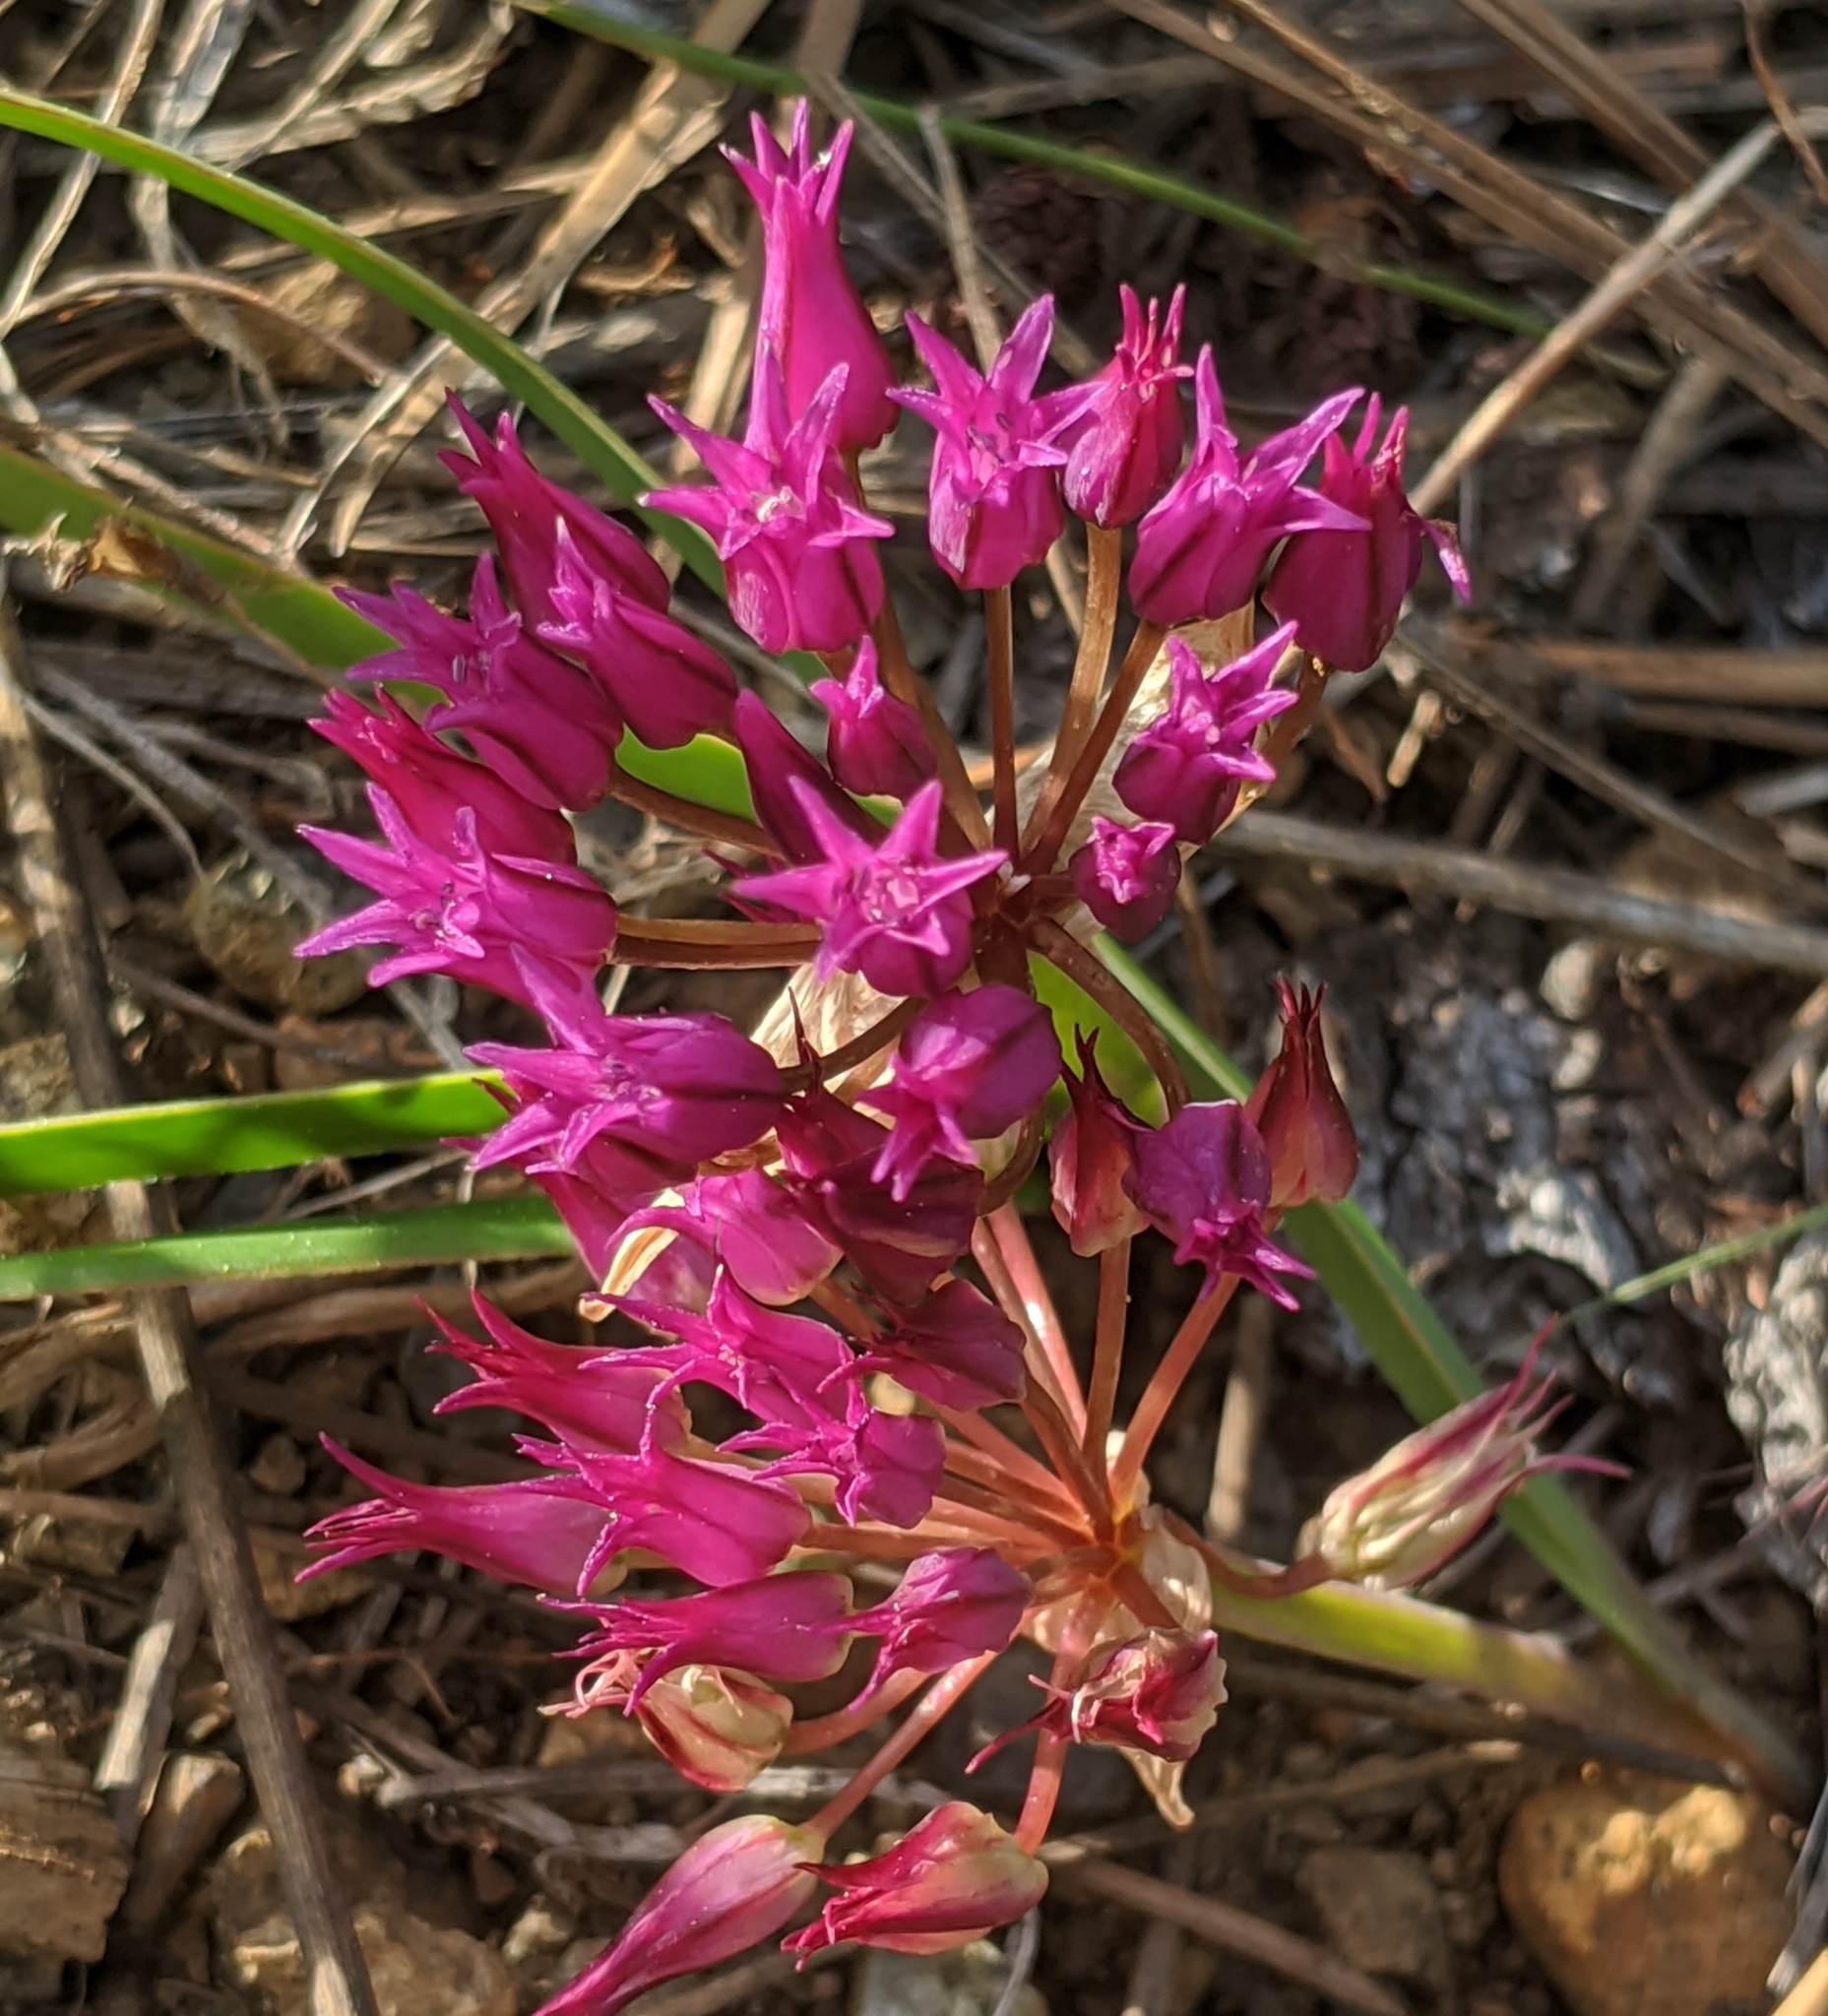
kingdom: Plantae
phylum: Tracheophyta
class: Liliopsida
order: Asparagales
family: Amaryllidaceae
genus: Allium
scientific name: Allium falcifolium
